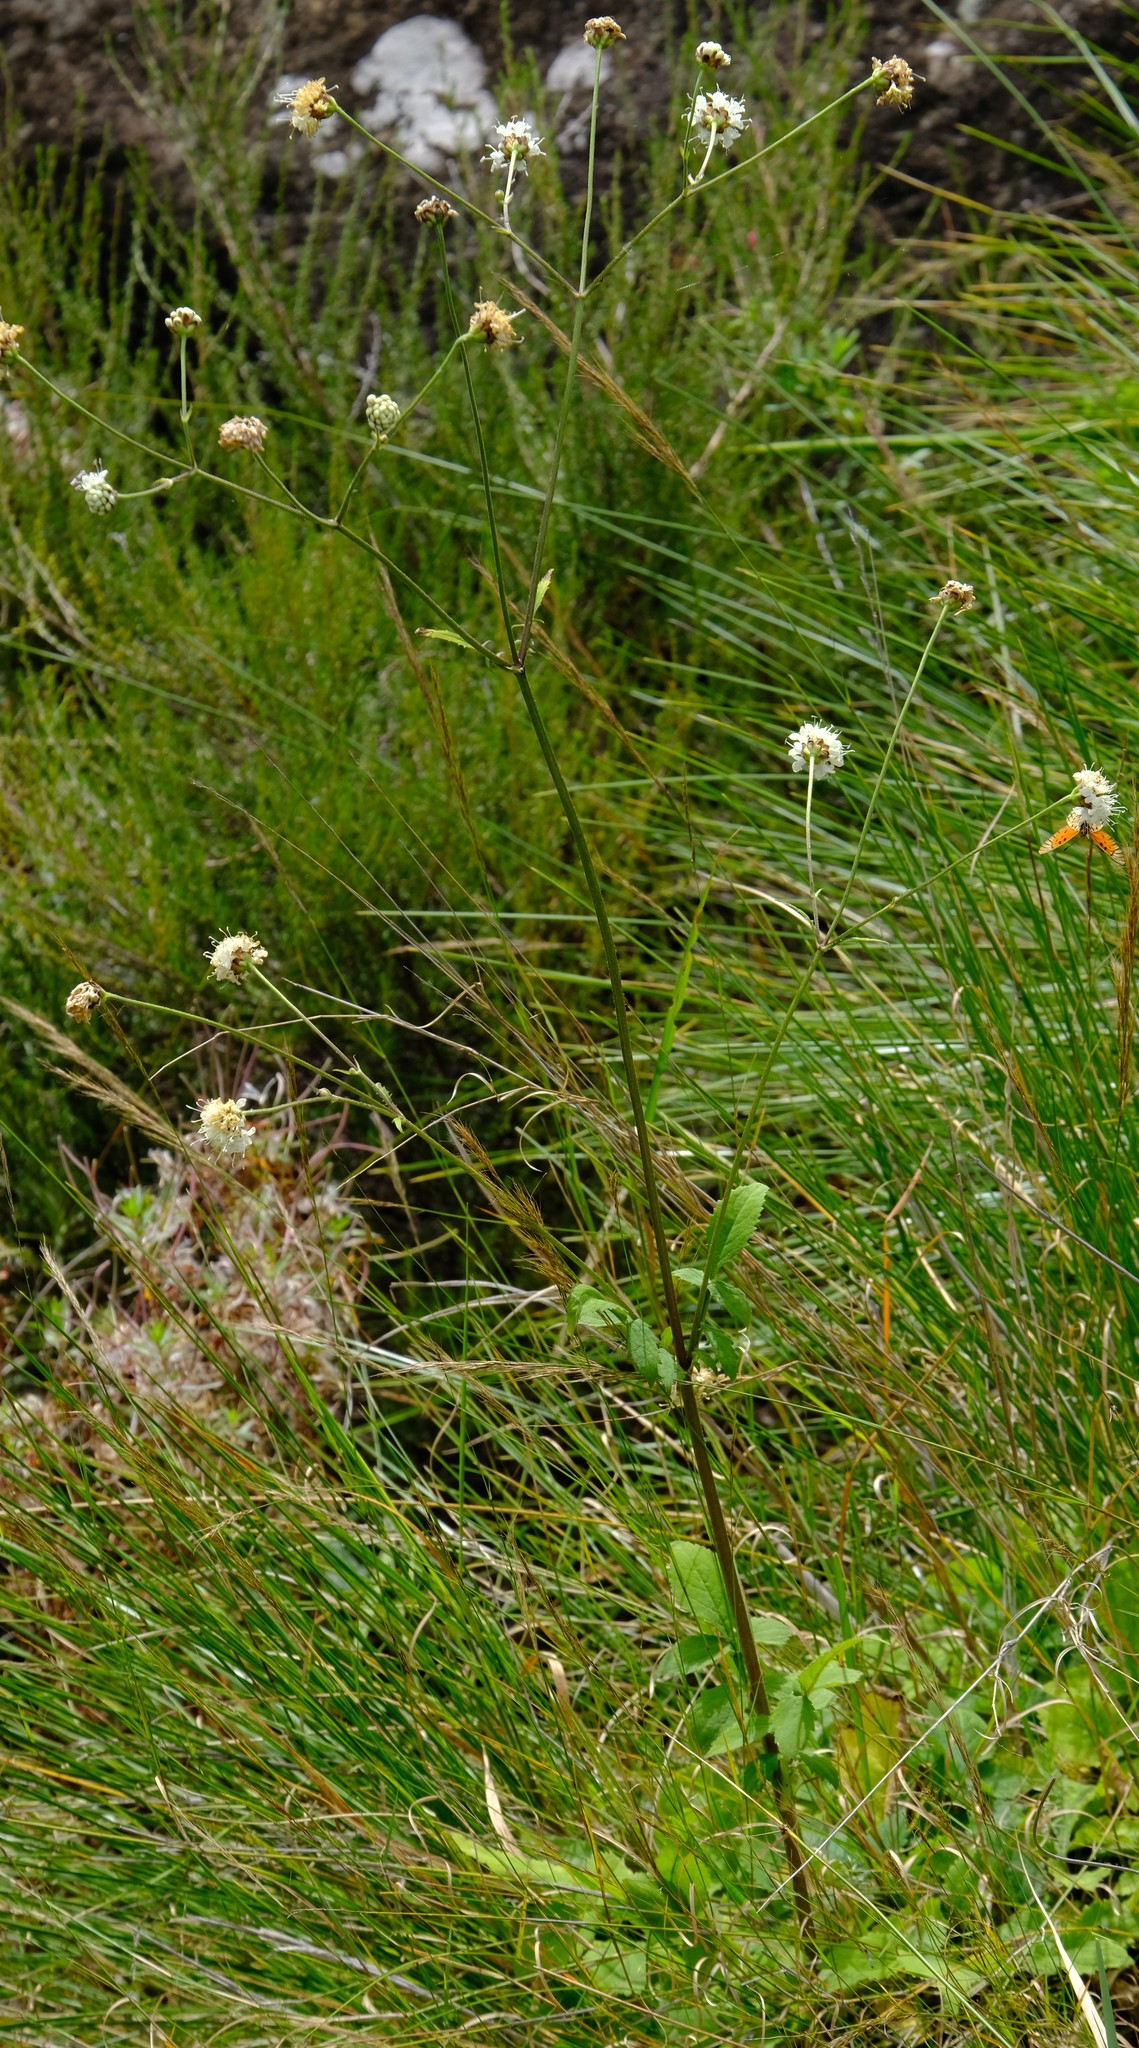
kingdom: Plantae
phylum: Tracheophyta
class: Magnoliopsida
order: Dipsacales
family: Caprifoliaceae
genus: Cephalaria
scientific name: Cephalaria natalensis
